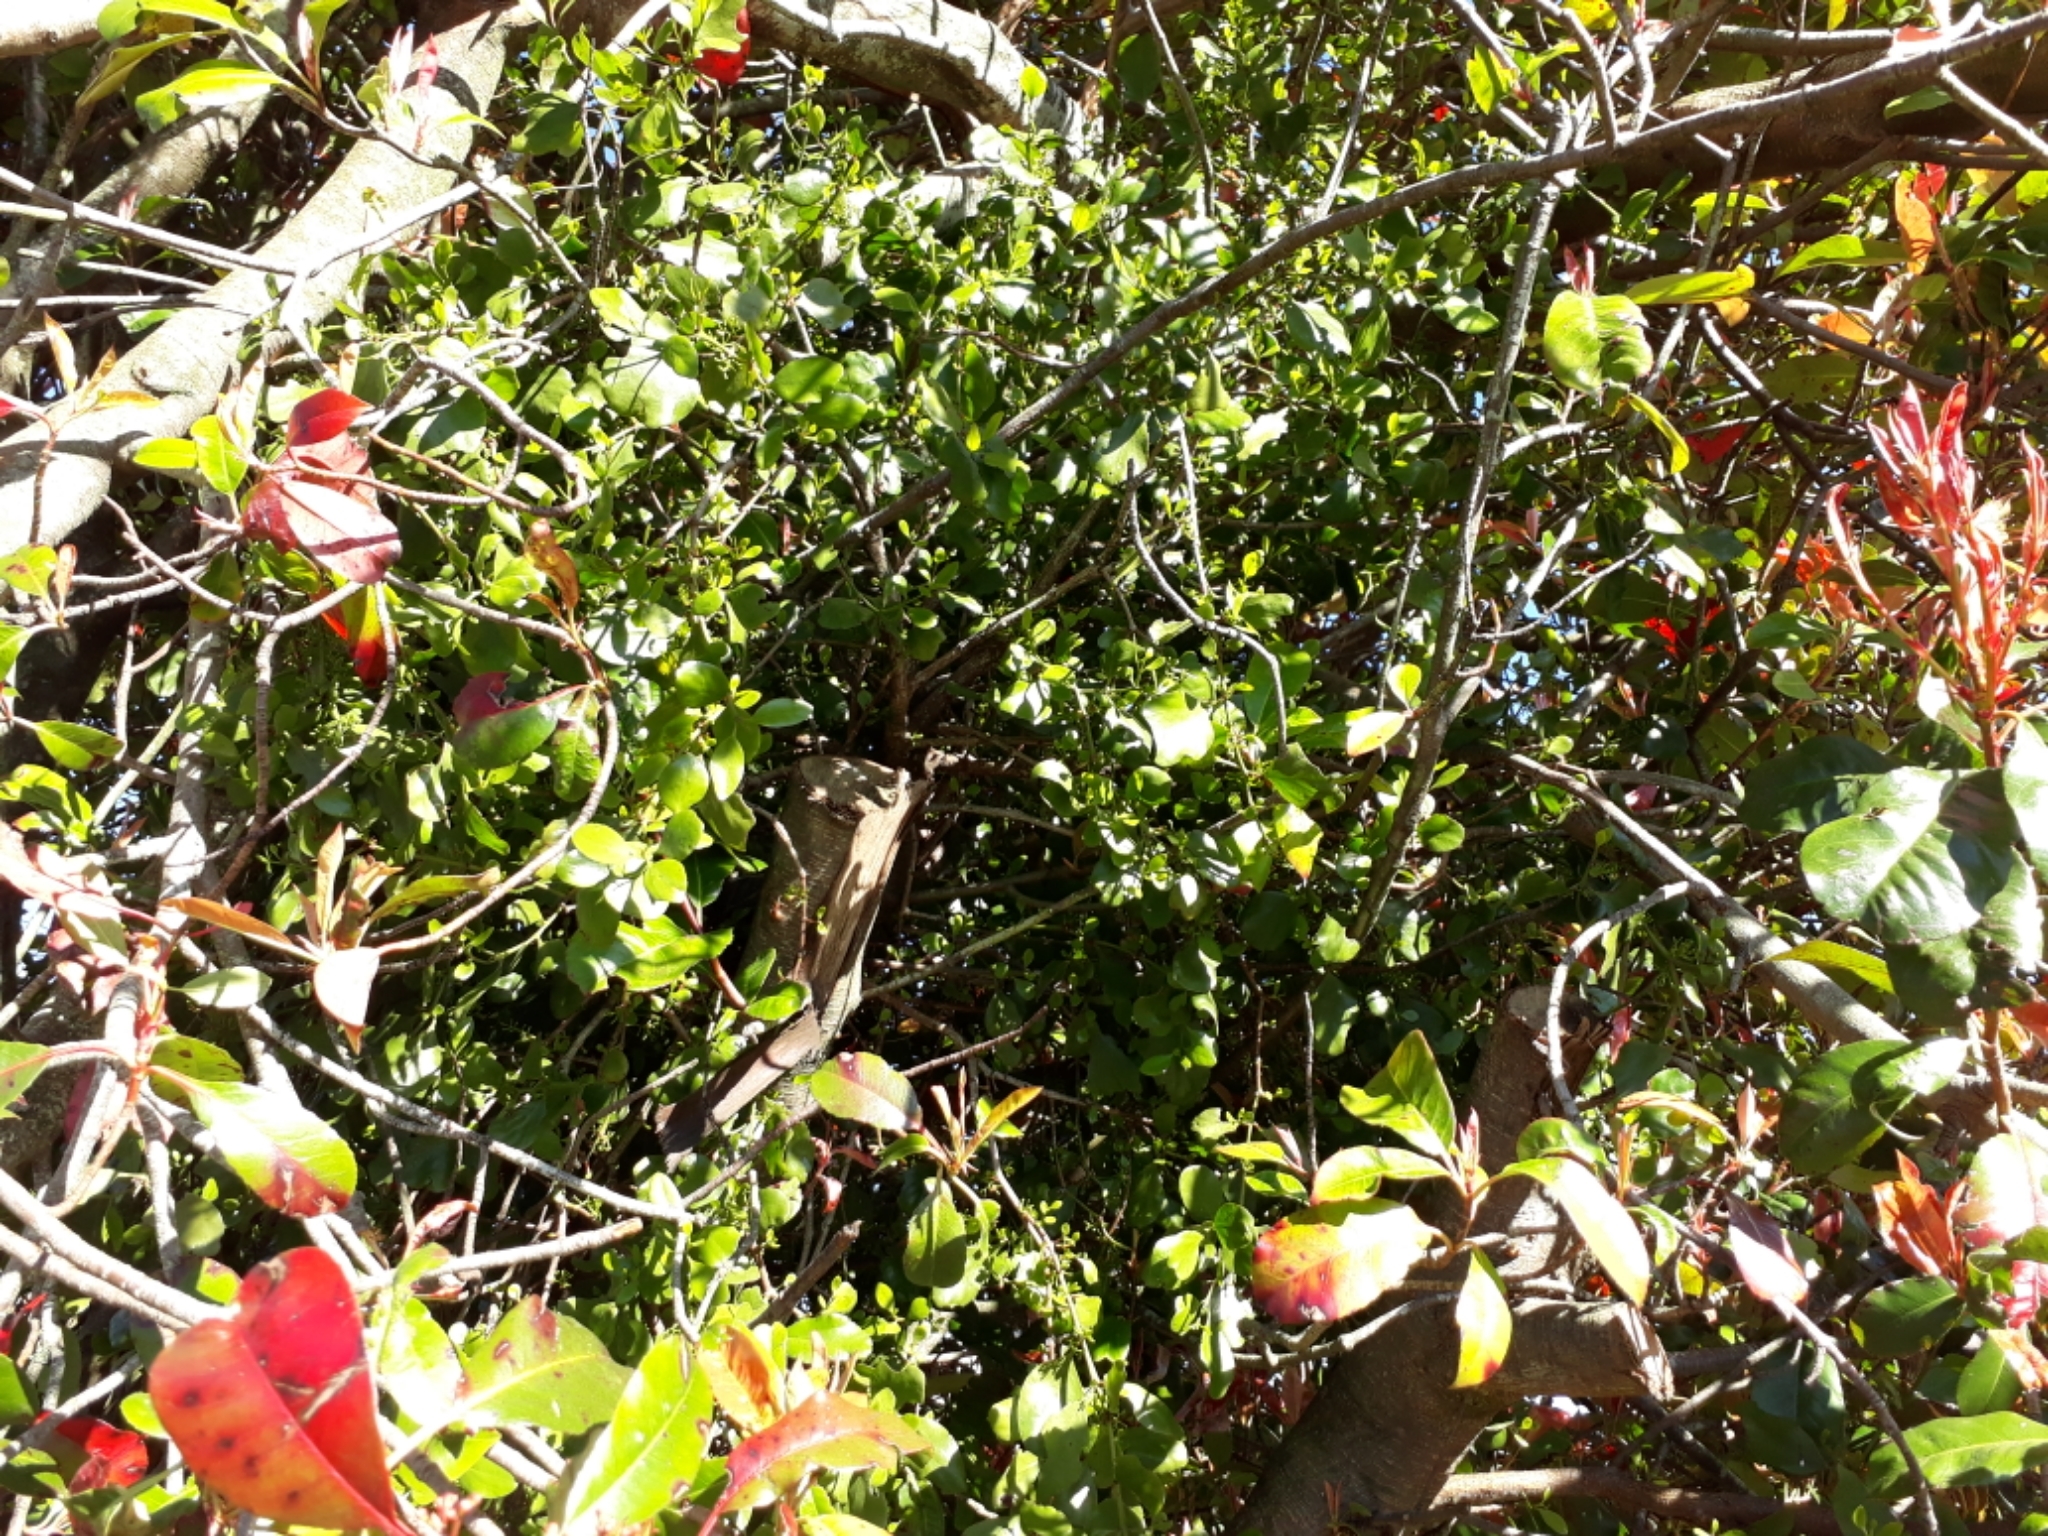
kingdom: Plantae
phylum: Tracheophyta
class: Magnoliopsida
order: Santalales
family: Loranthaceae
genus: Ileostylus
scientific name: Ileostylus micranthus
